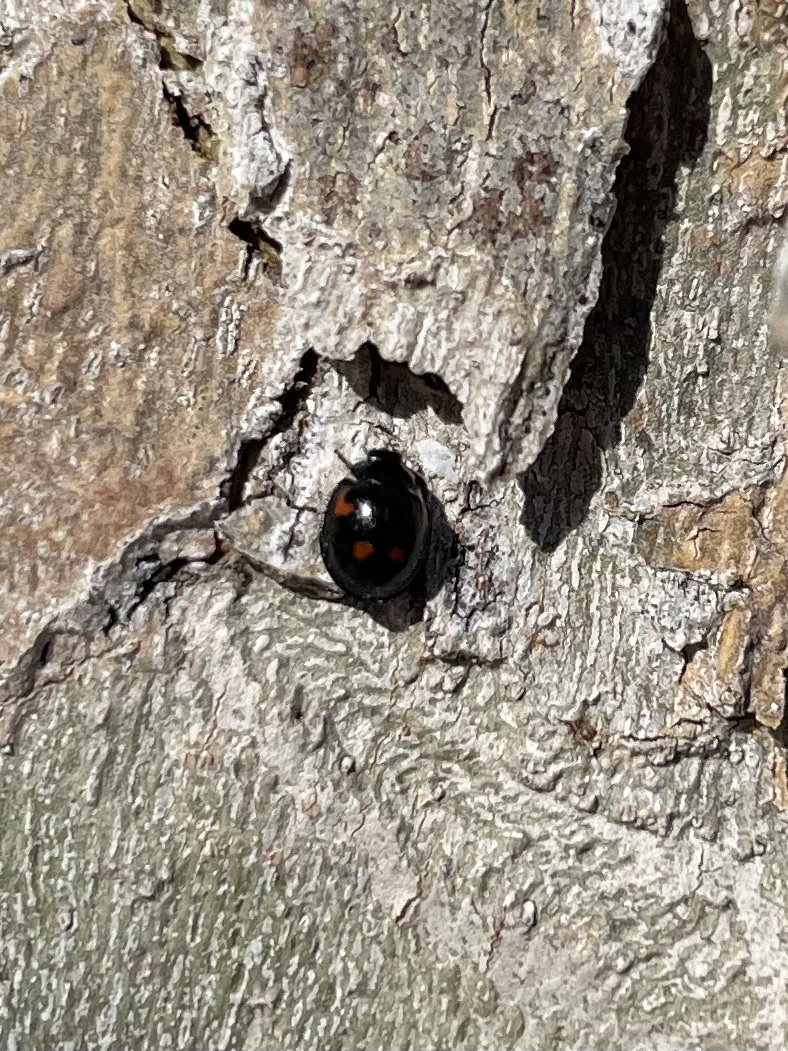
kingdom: Animalia
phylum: Arthropoda
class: Insecta
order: Coleoptera
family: Coccinellidae
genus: Brumus
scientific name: Brumus quadripustulatus
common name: Ladybird beetle
